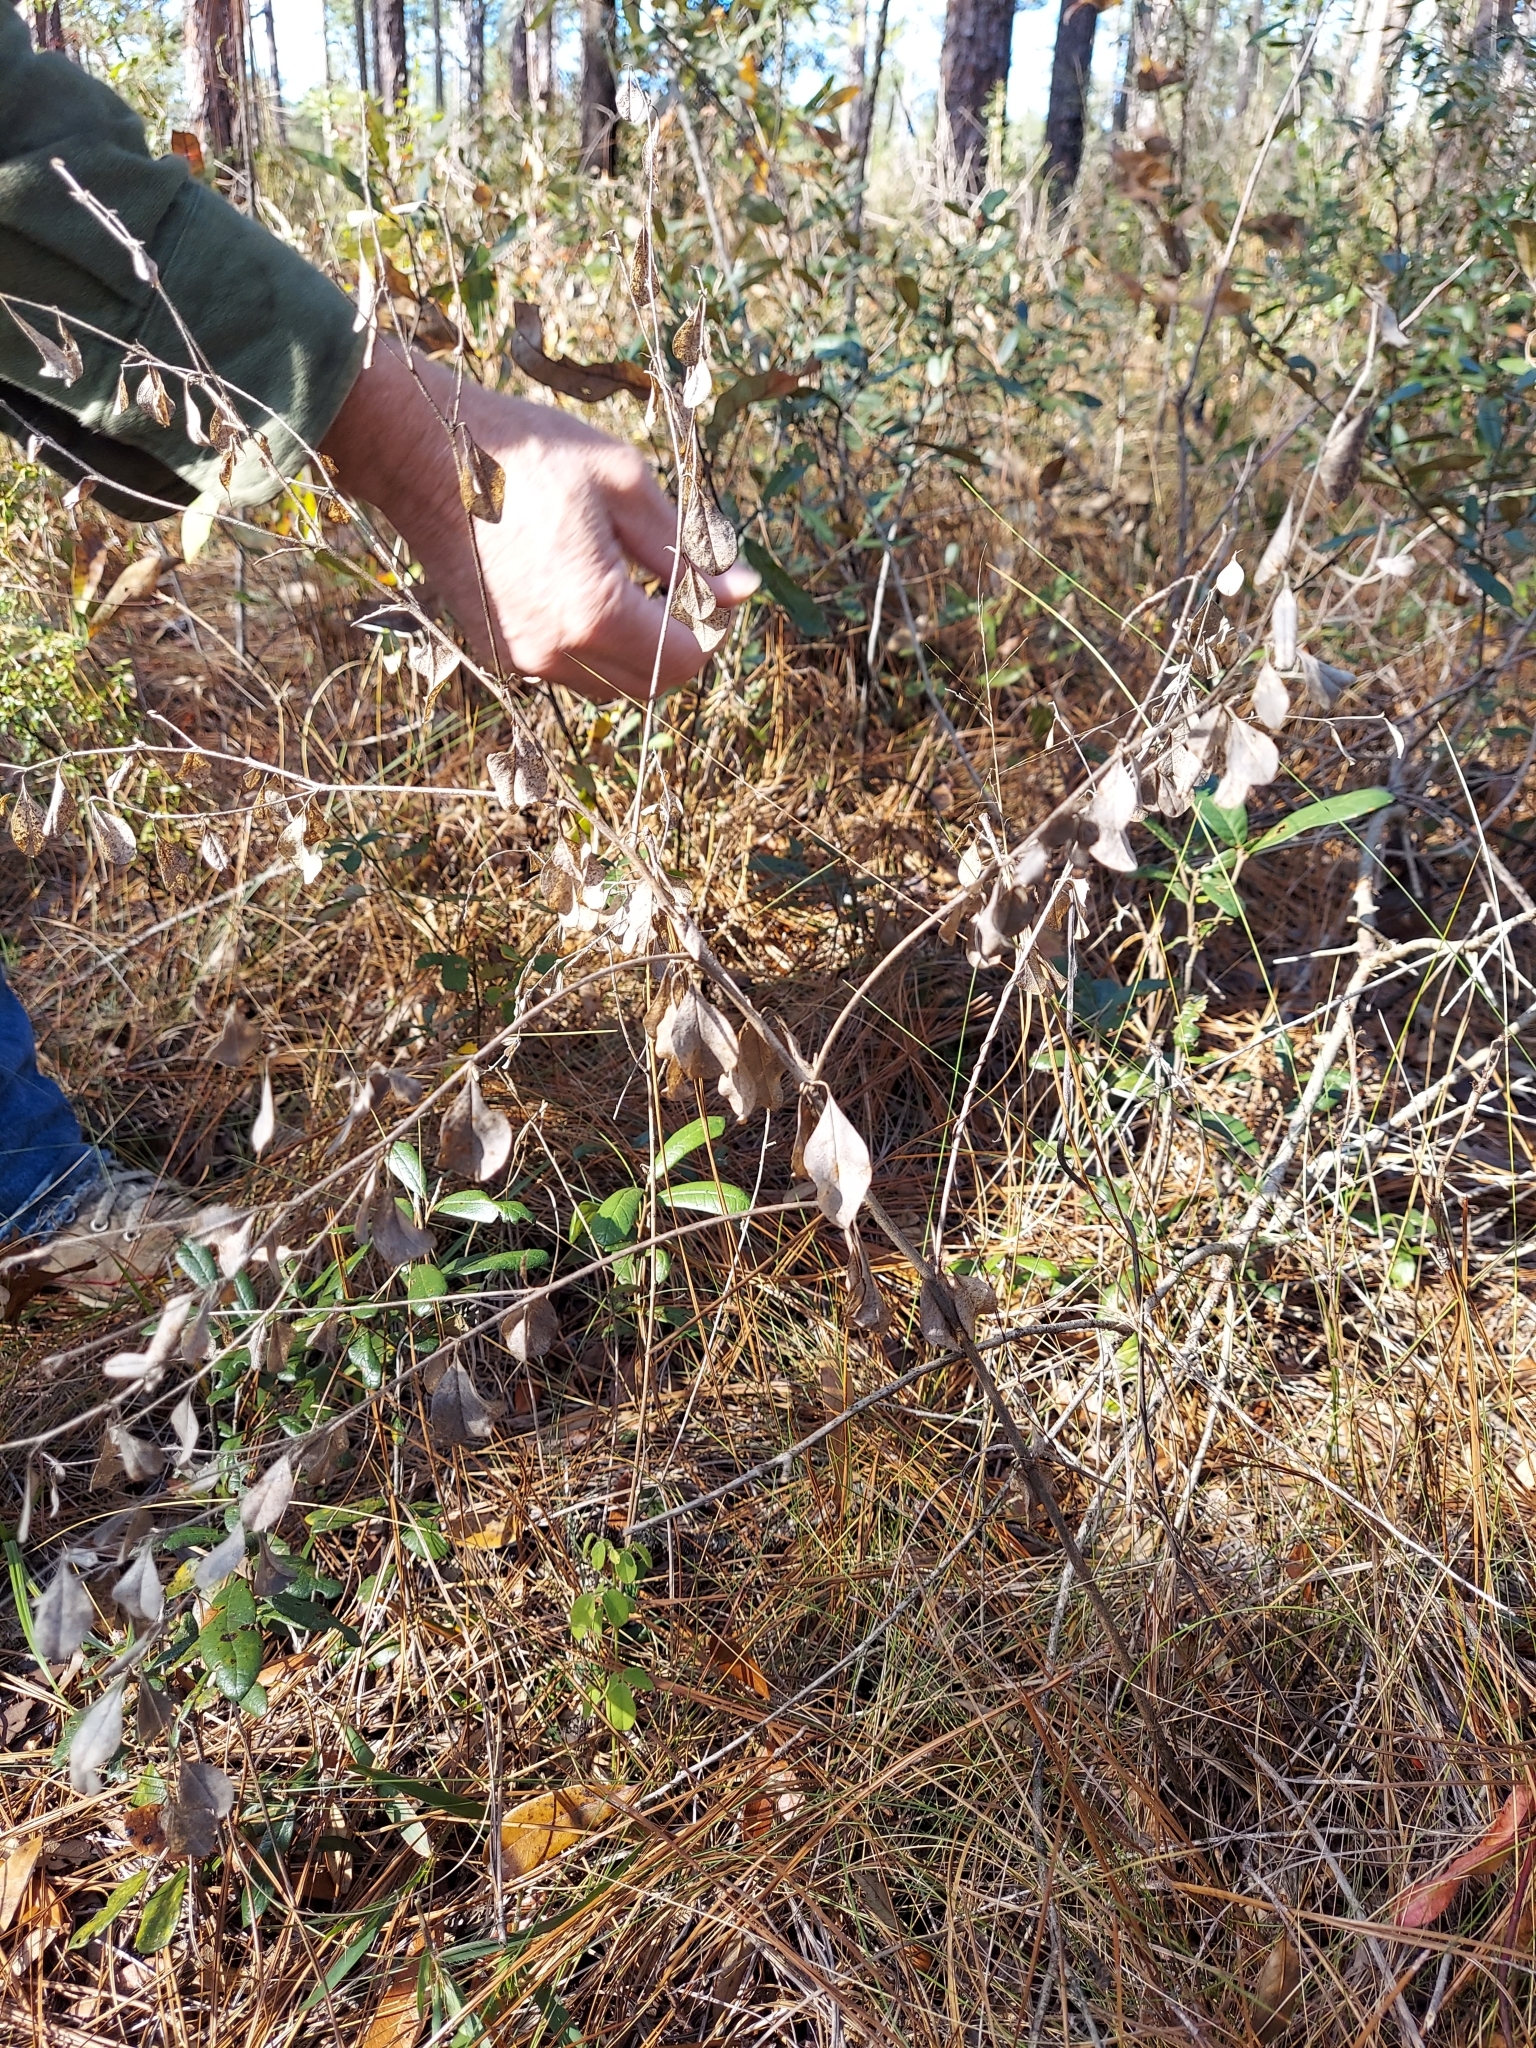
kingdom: Plantae
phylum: Tracheophyta
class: Magnoliopsida
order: Fabales
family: Fabaceae
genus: Pediomelum
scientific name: Pediomelum canescens
